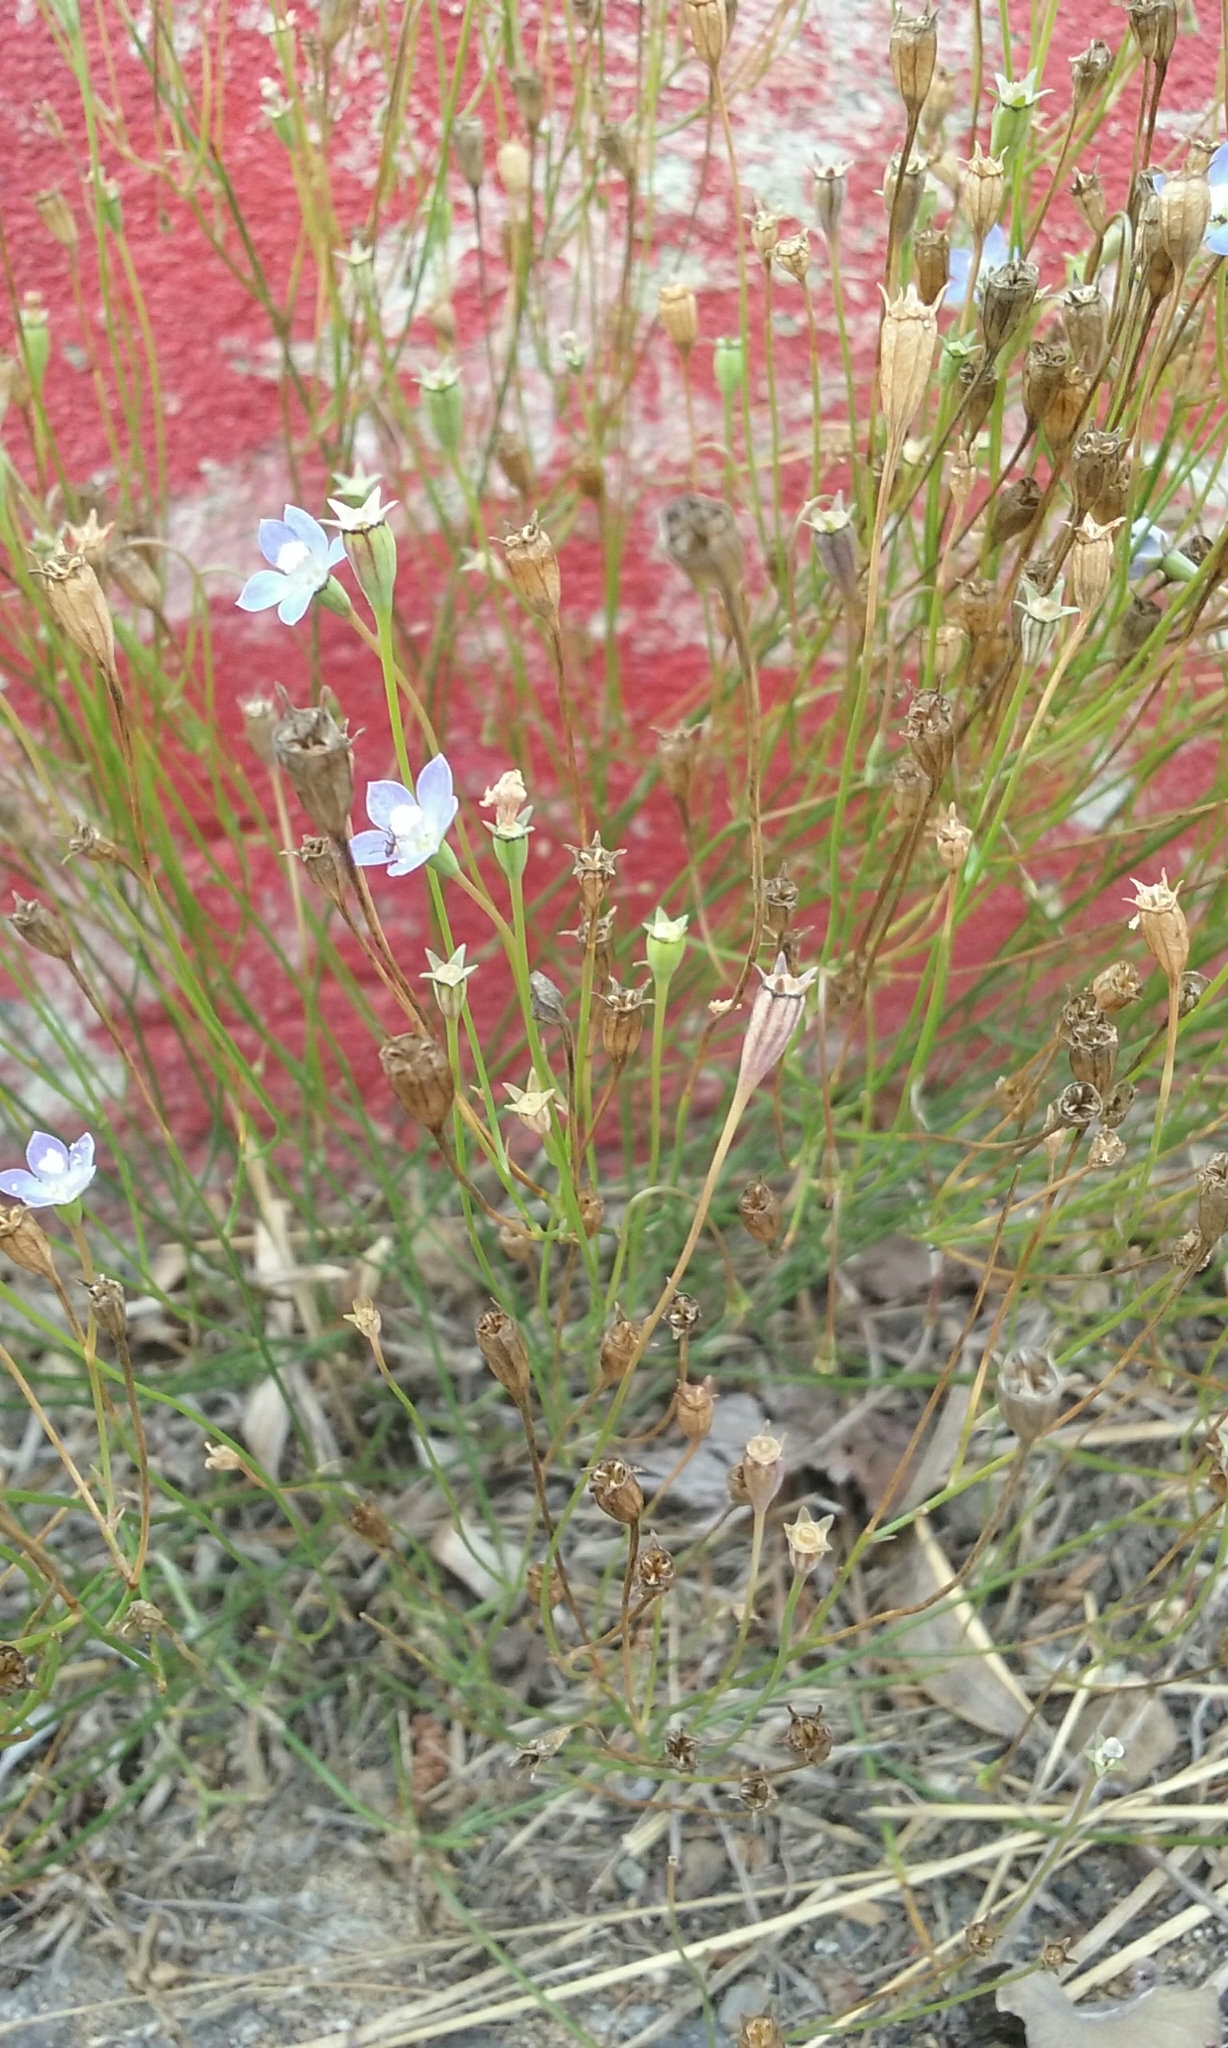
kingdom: Plantae
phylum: Tracheophyta
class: Magnoliopsida
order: Asterales
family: Campanulaceae
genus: Wahlenbergia
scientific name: Wahlenbergia marginata
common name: Southern rockbell
